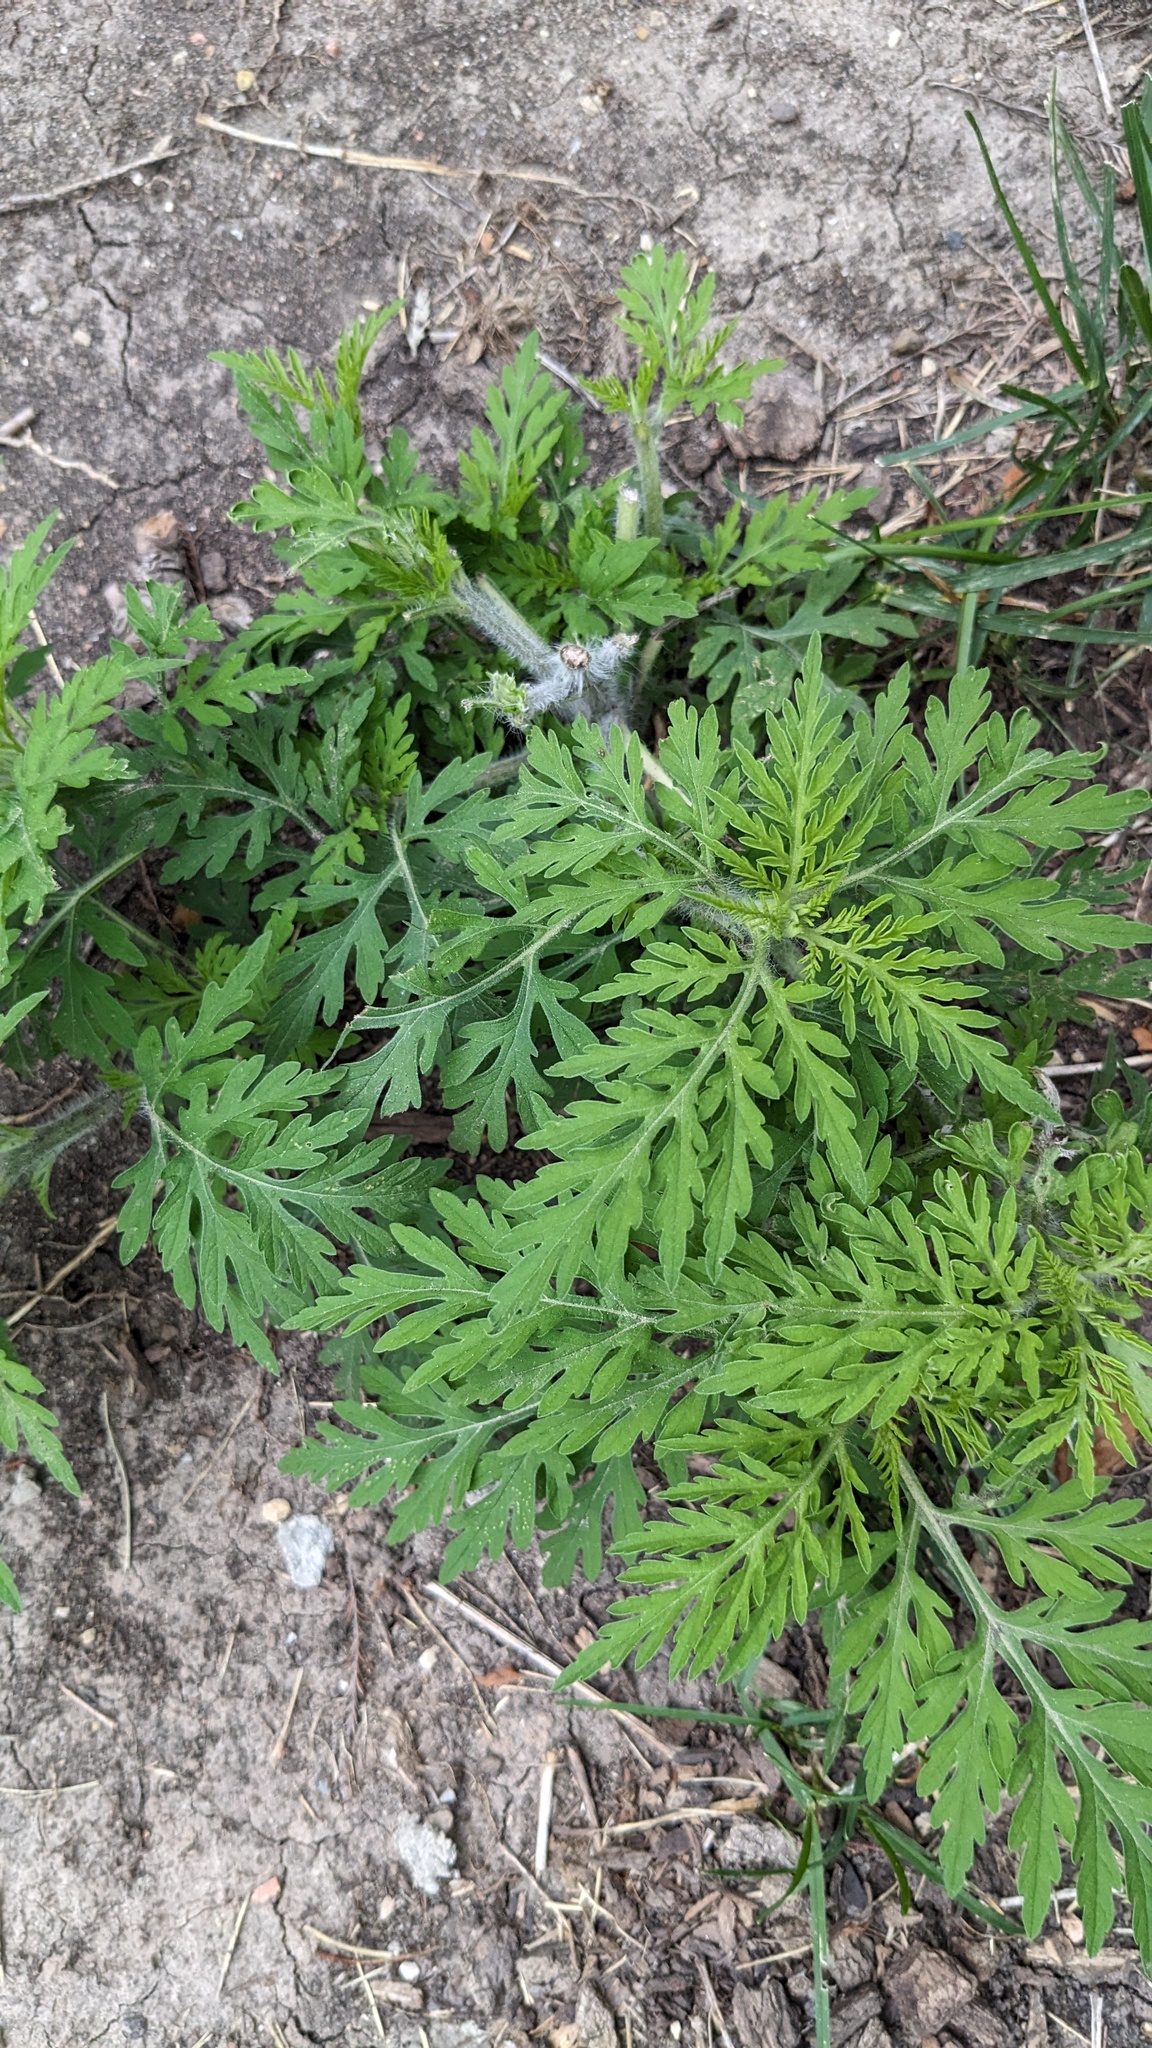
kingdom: Plantae
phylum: Tracheophyta
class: Magnoliopsida
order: Asterales
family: Asteraceae
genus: Ambrosia
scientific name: Ambrosia artemisiifolia
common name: Annual ragweed
